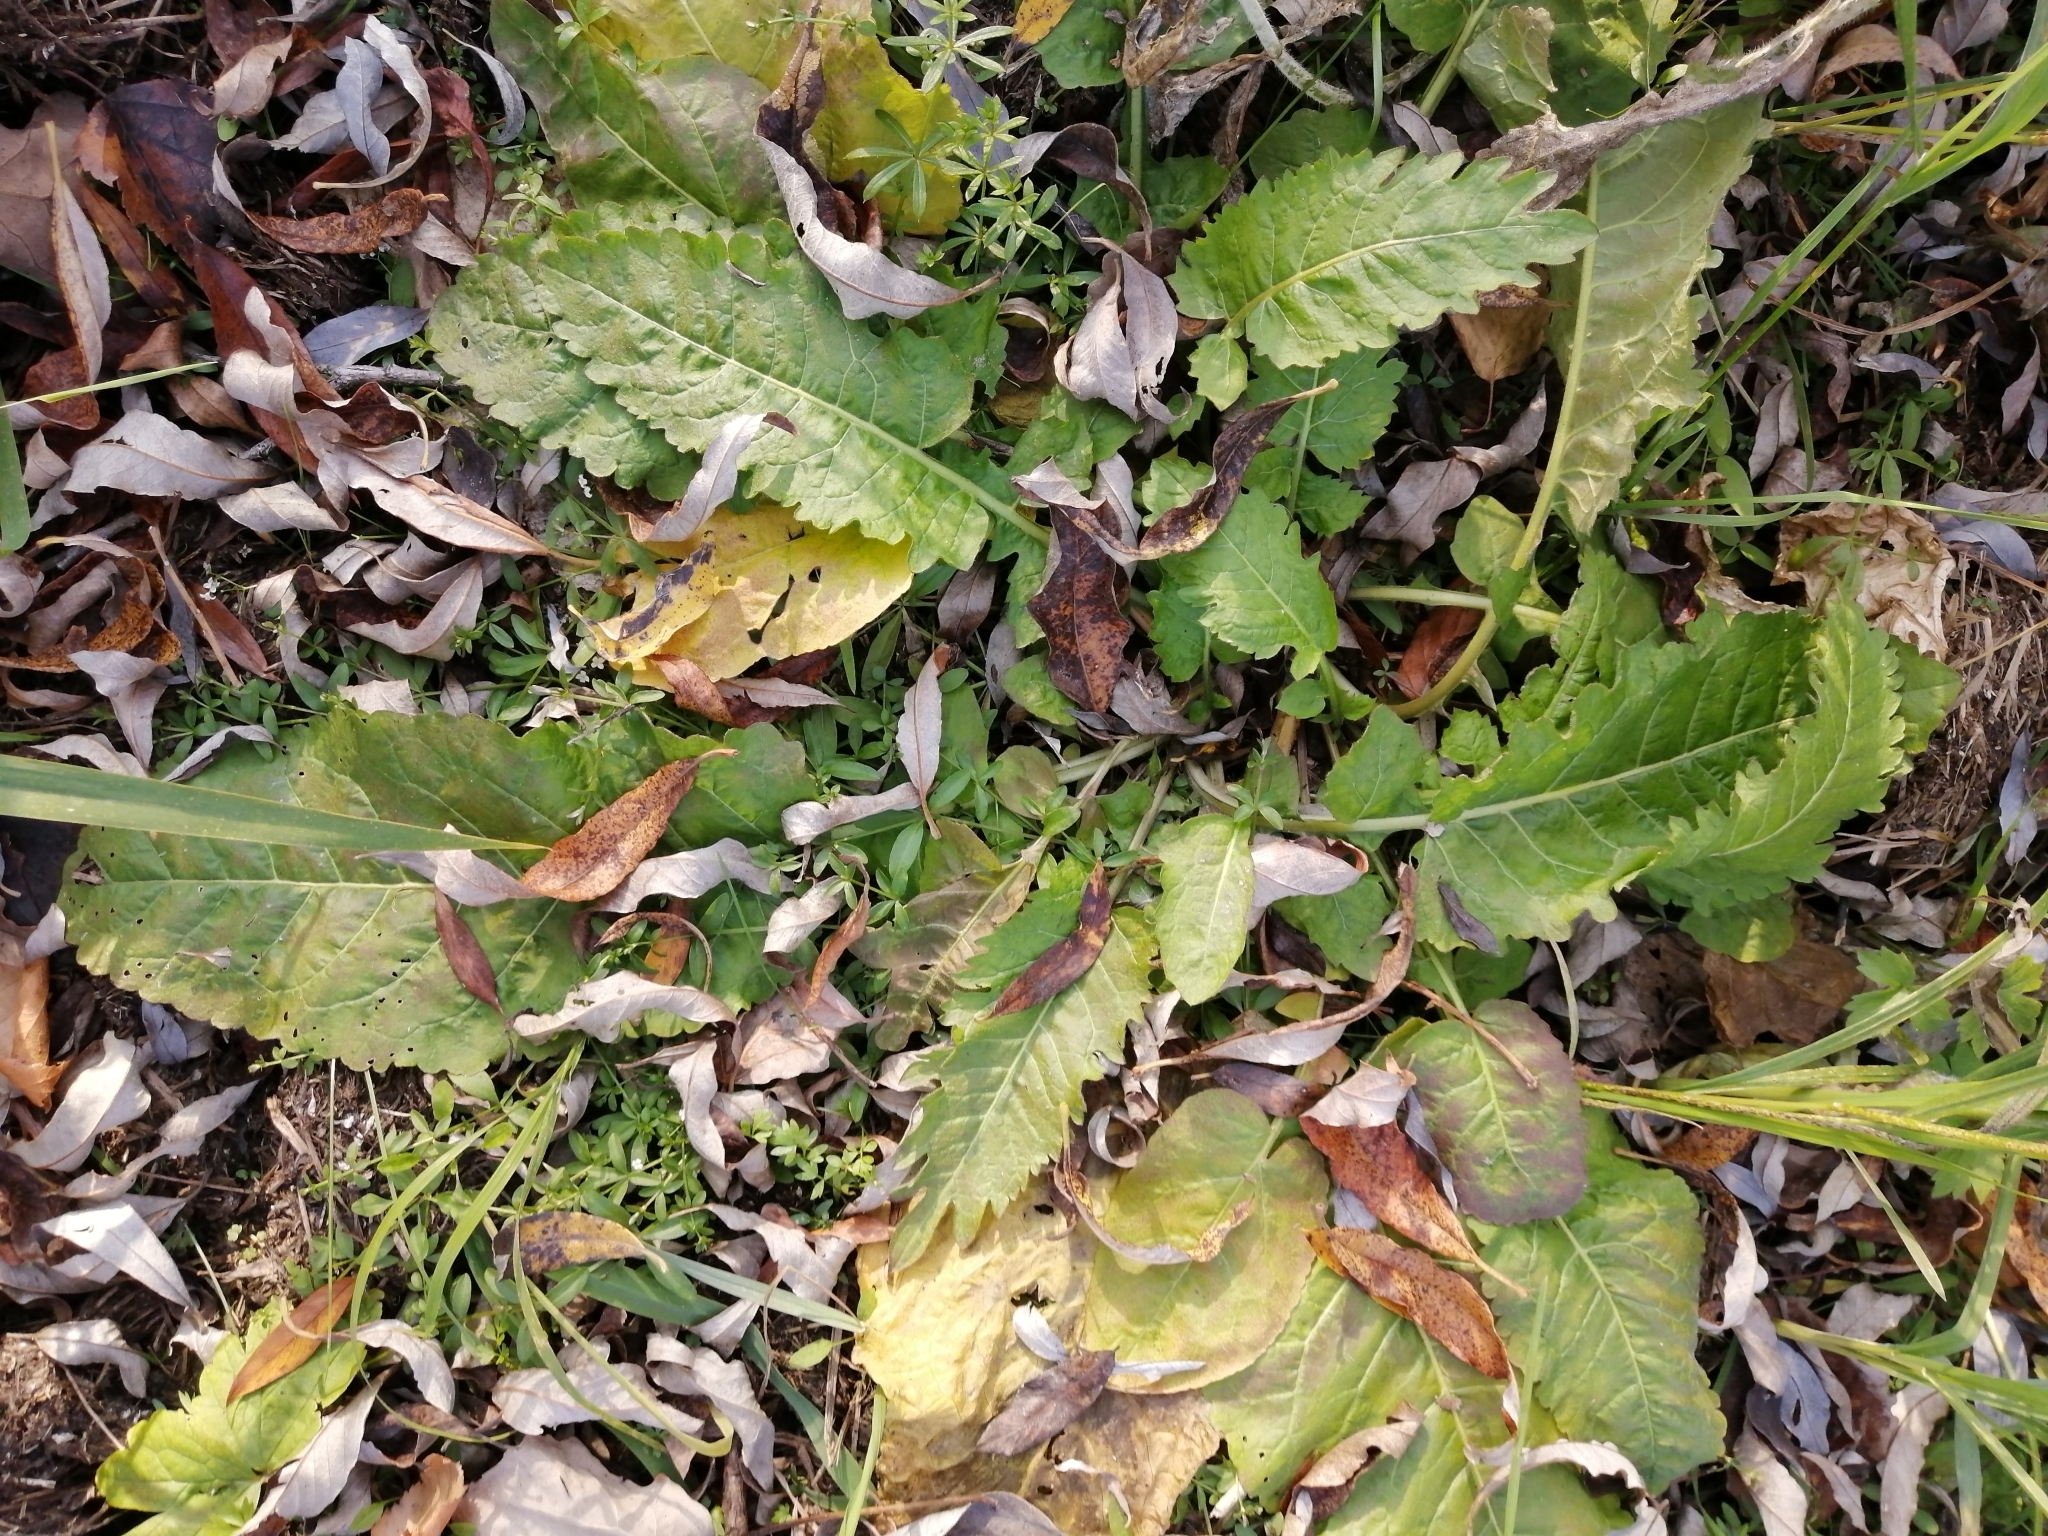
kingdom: Plantae
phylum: Tracheophyta
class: Magnoliopsida
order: Brassicales
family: Brassicaceae
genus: Rorippa
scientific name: Rorippa amphibia
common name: Great yellow-cress
